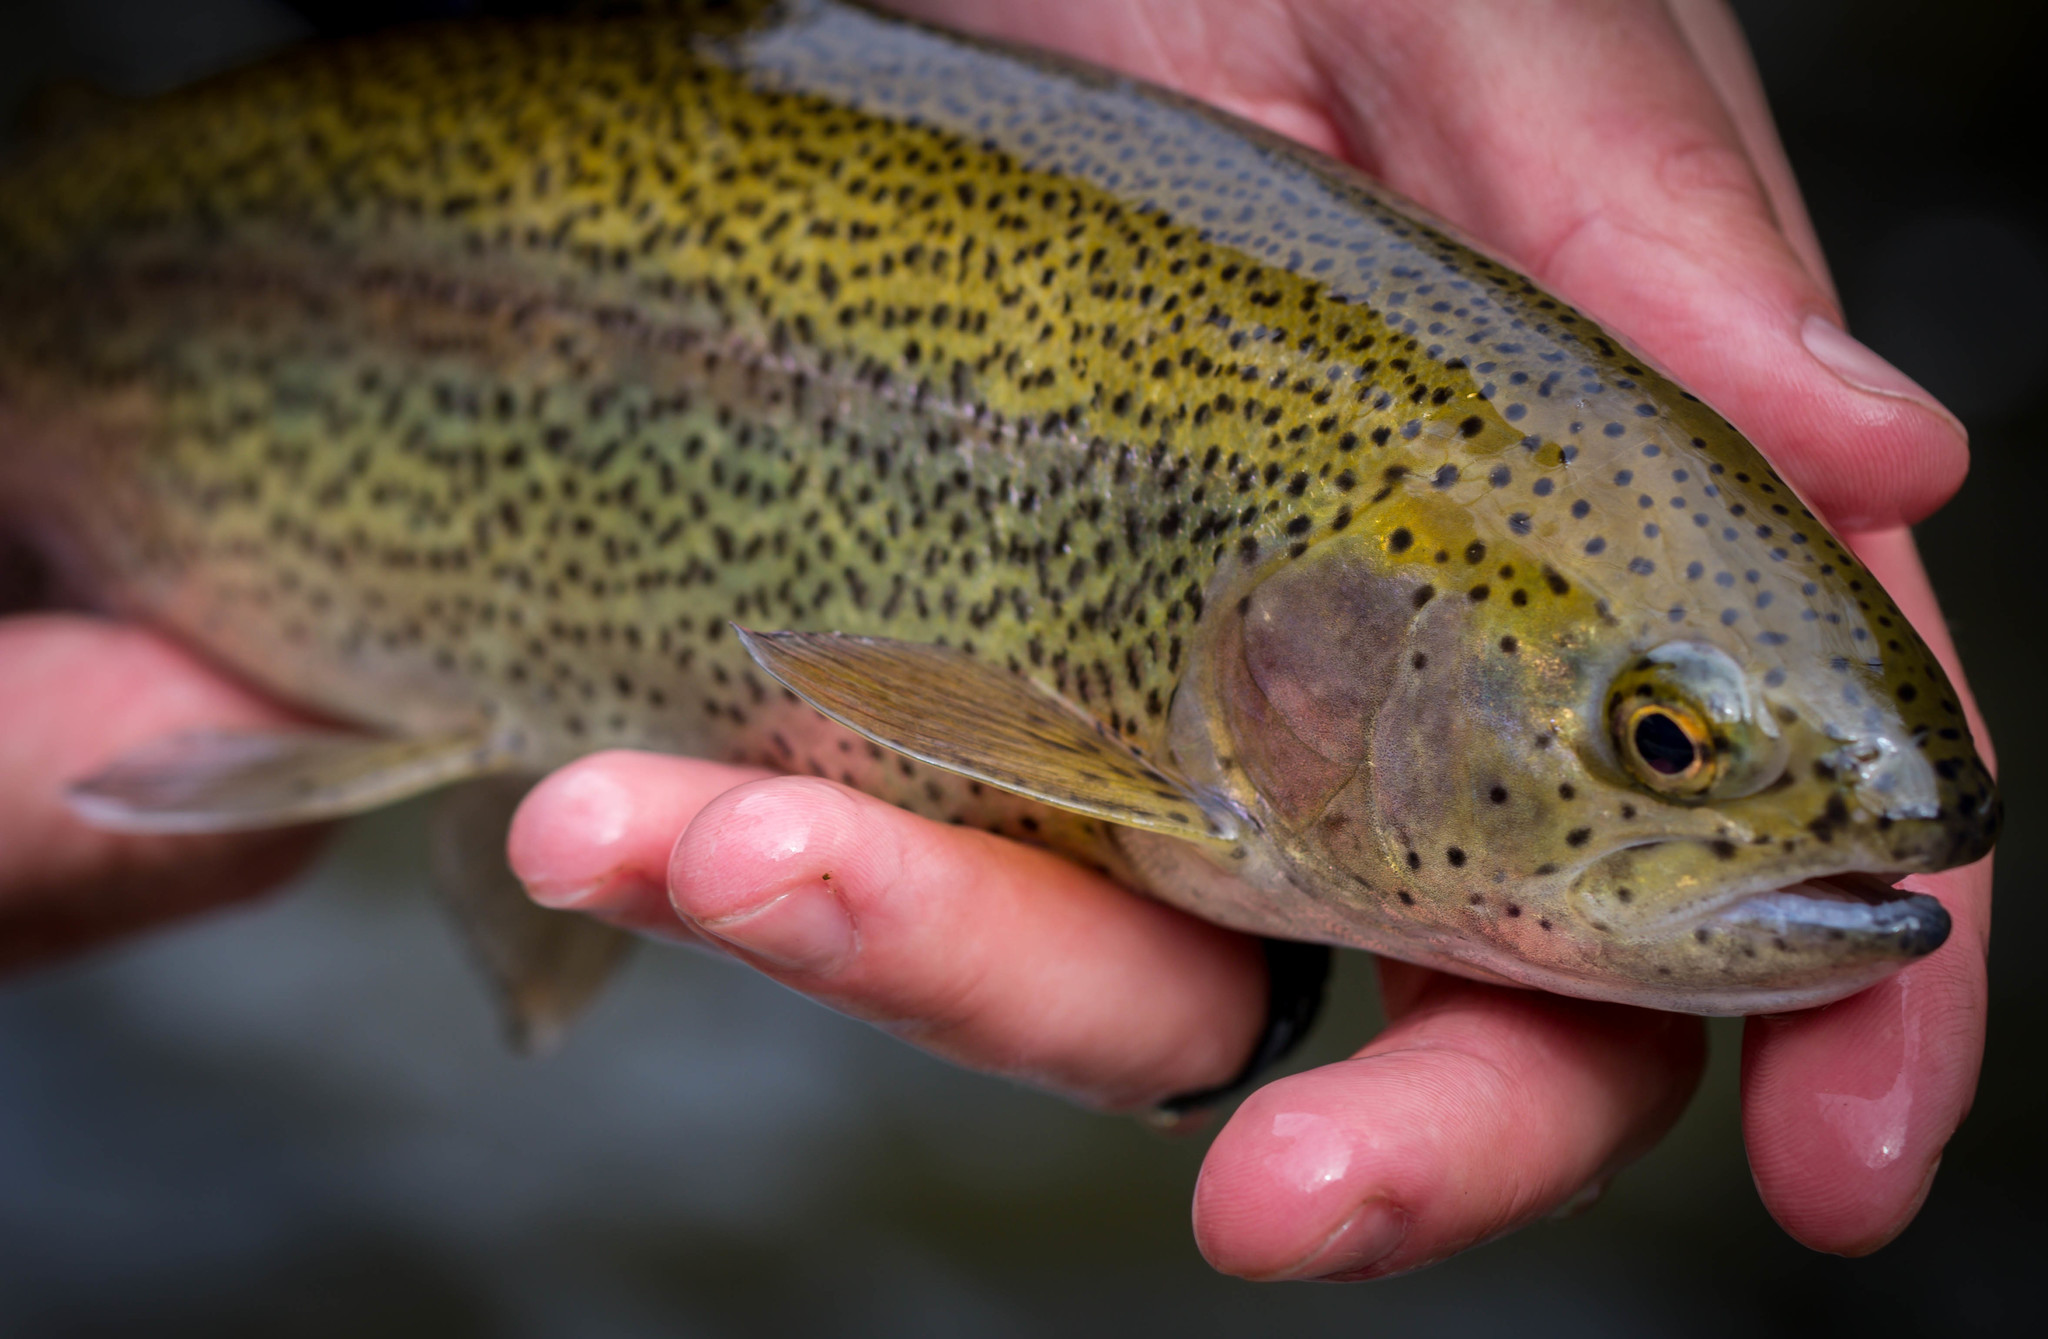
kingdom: Animalia
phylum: Chordata
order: Salmoniformes
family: Salmonidae
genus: Oncorhynchus
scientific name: Oncorhynchus mykiss
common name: Rainbow trout
